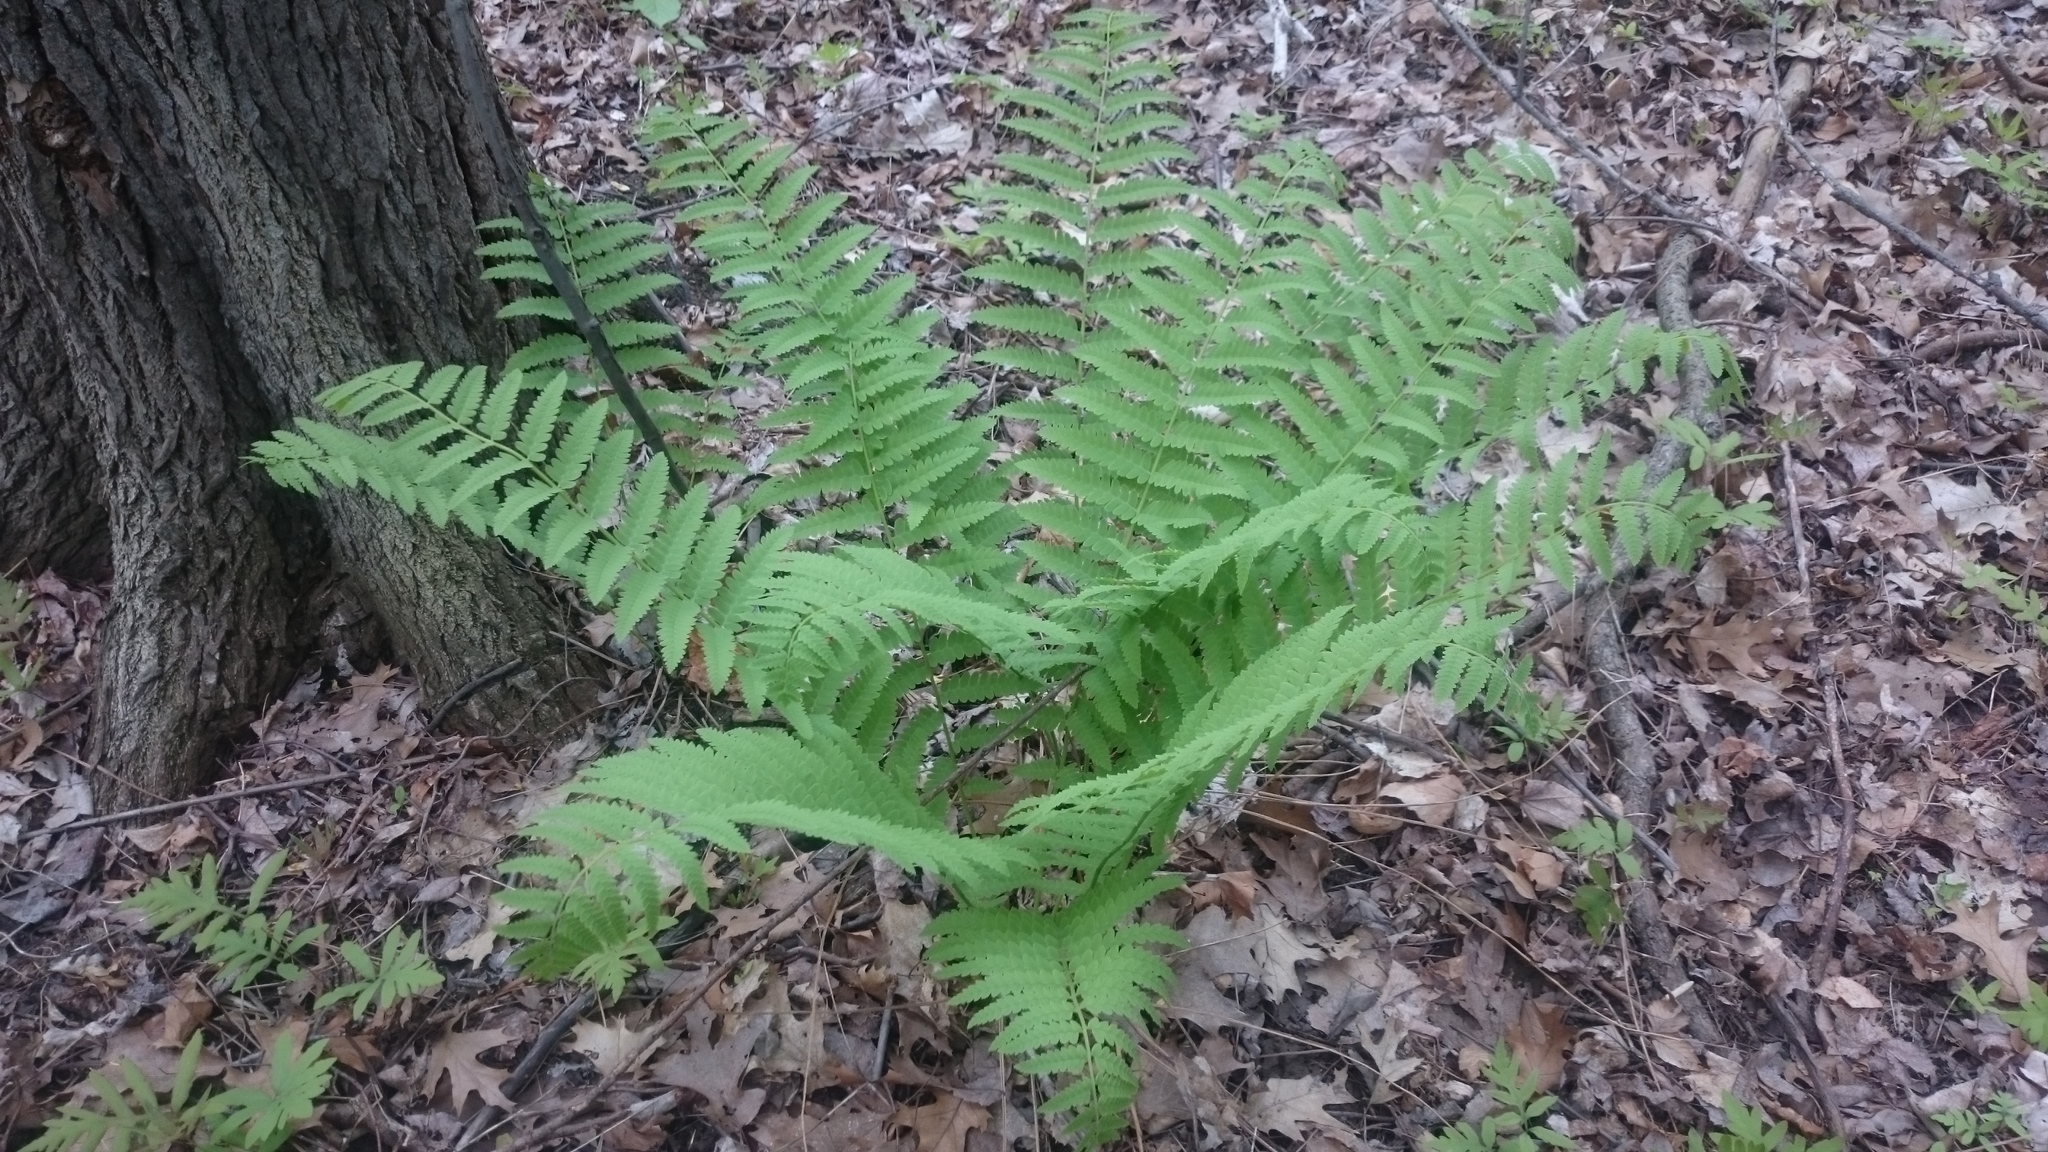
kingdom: Plantae
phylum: Tracheophyta
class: Polypodiopsida
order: Osmundales
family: Osmundaceae
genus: Claytosmunda
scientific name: Claytosmunda claytoniana
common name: Clayton's fern
